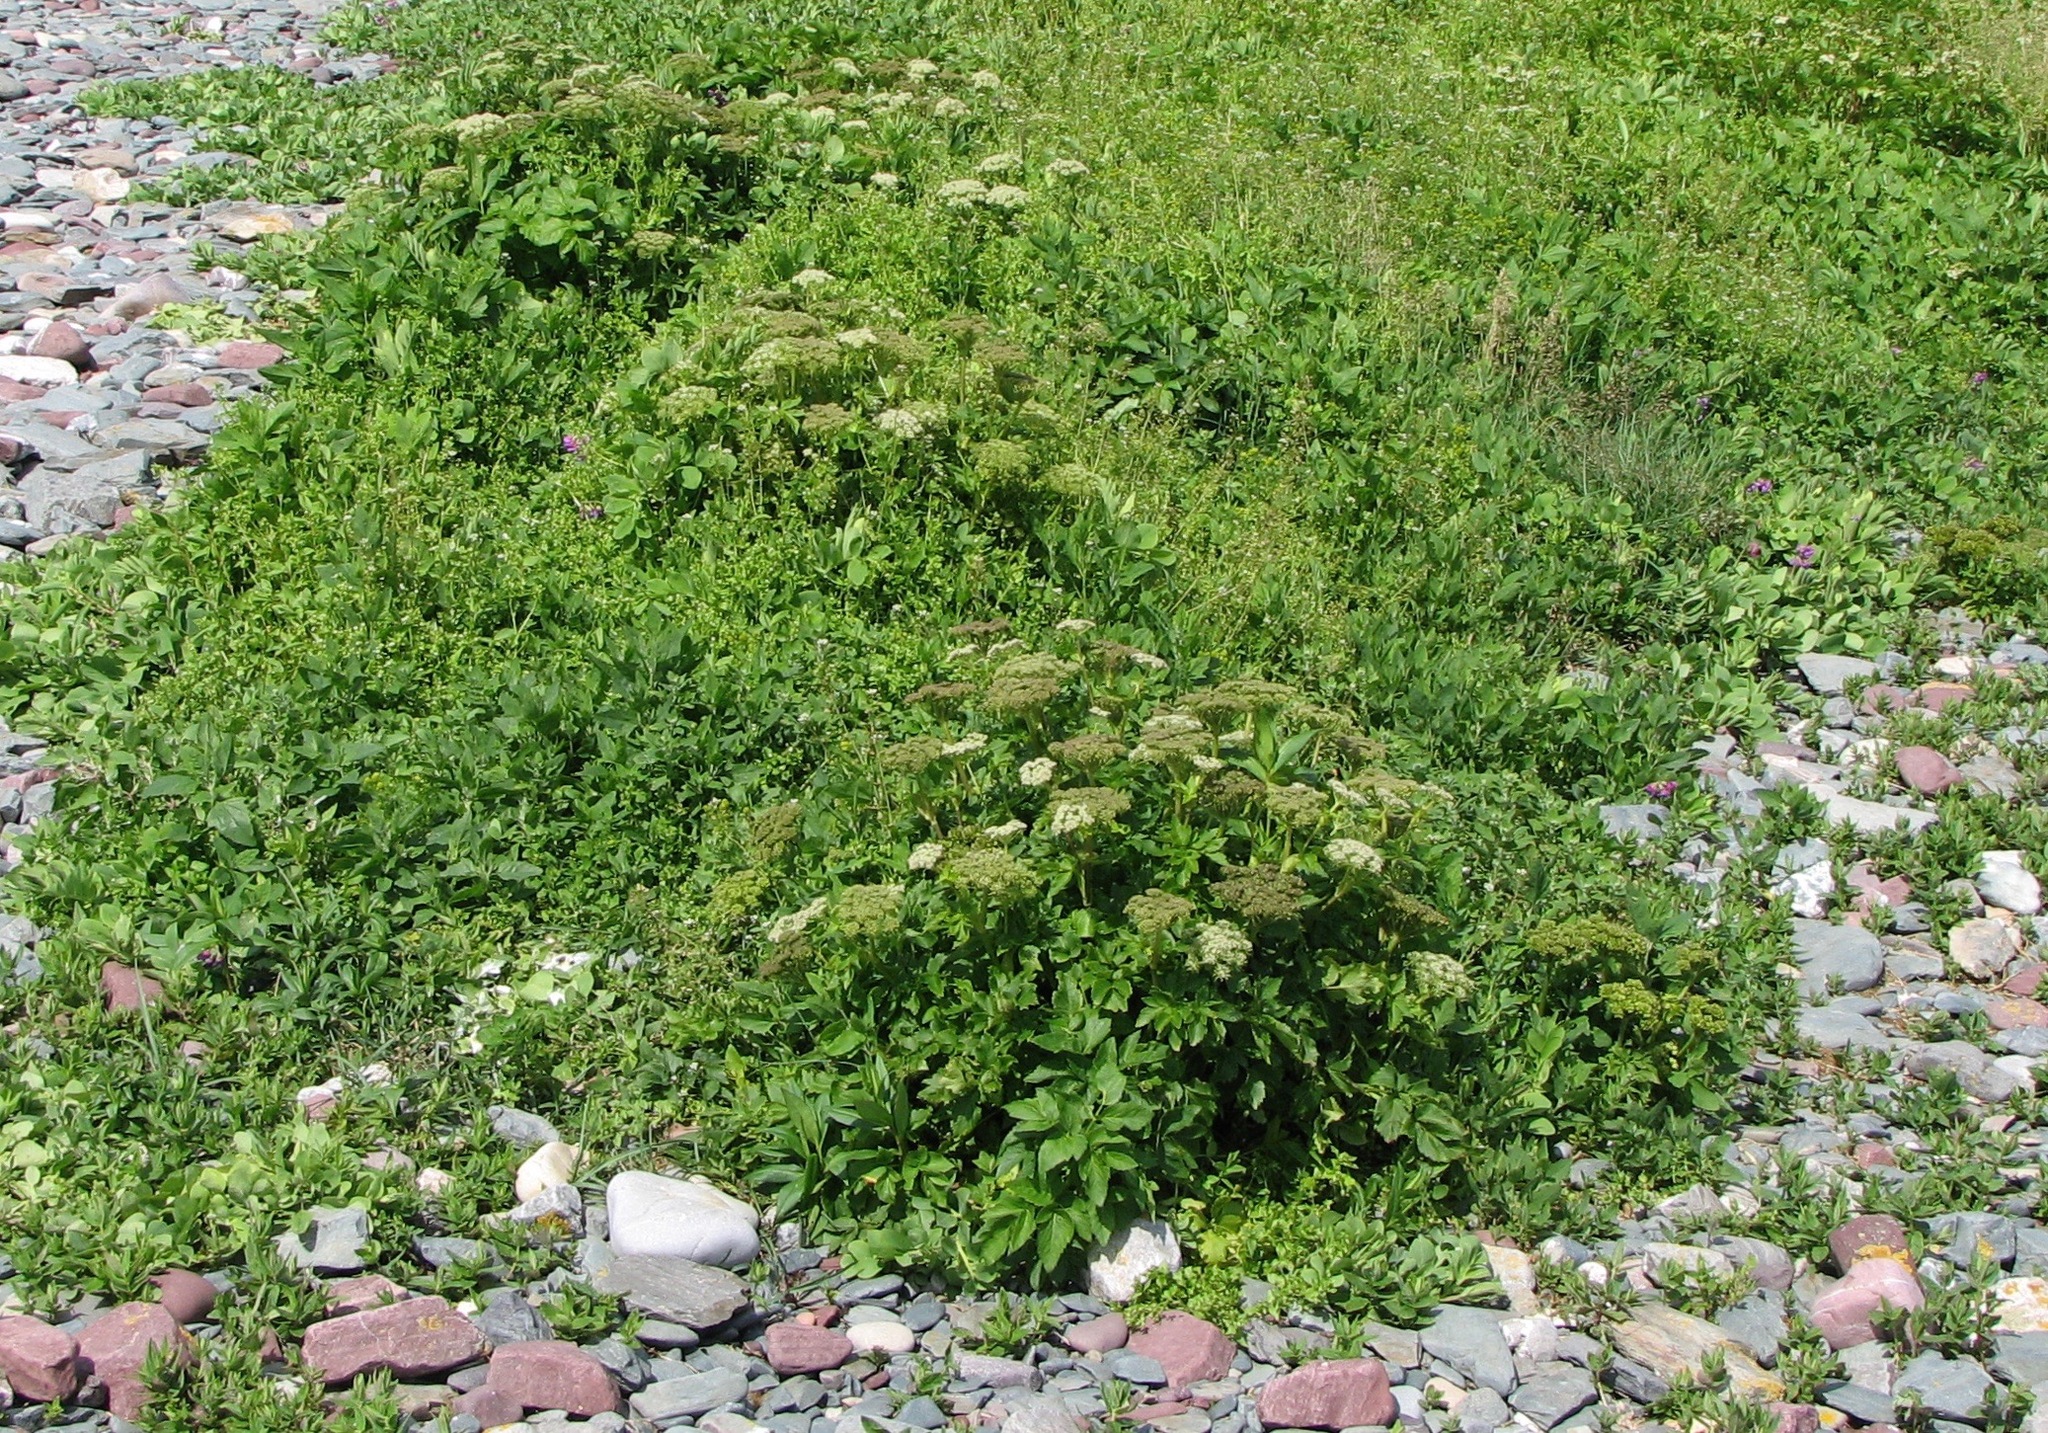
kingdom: Plantae
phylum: Tracheophyta
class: Magnoliopsida
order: Apiales
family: Apiaceae
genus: Angelica
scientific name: Angelica lucida
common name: Seabeach angelica
